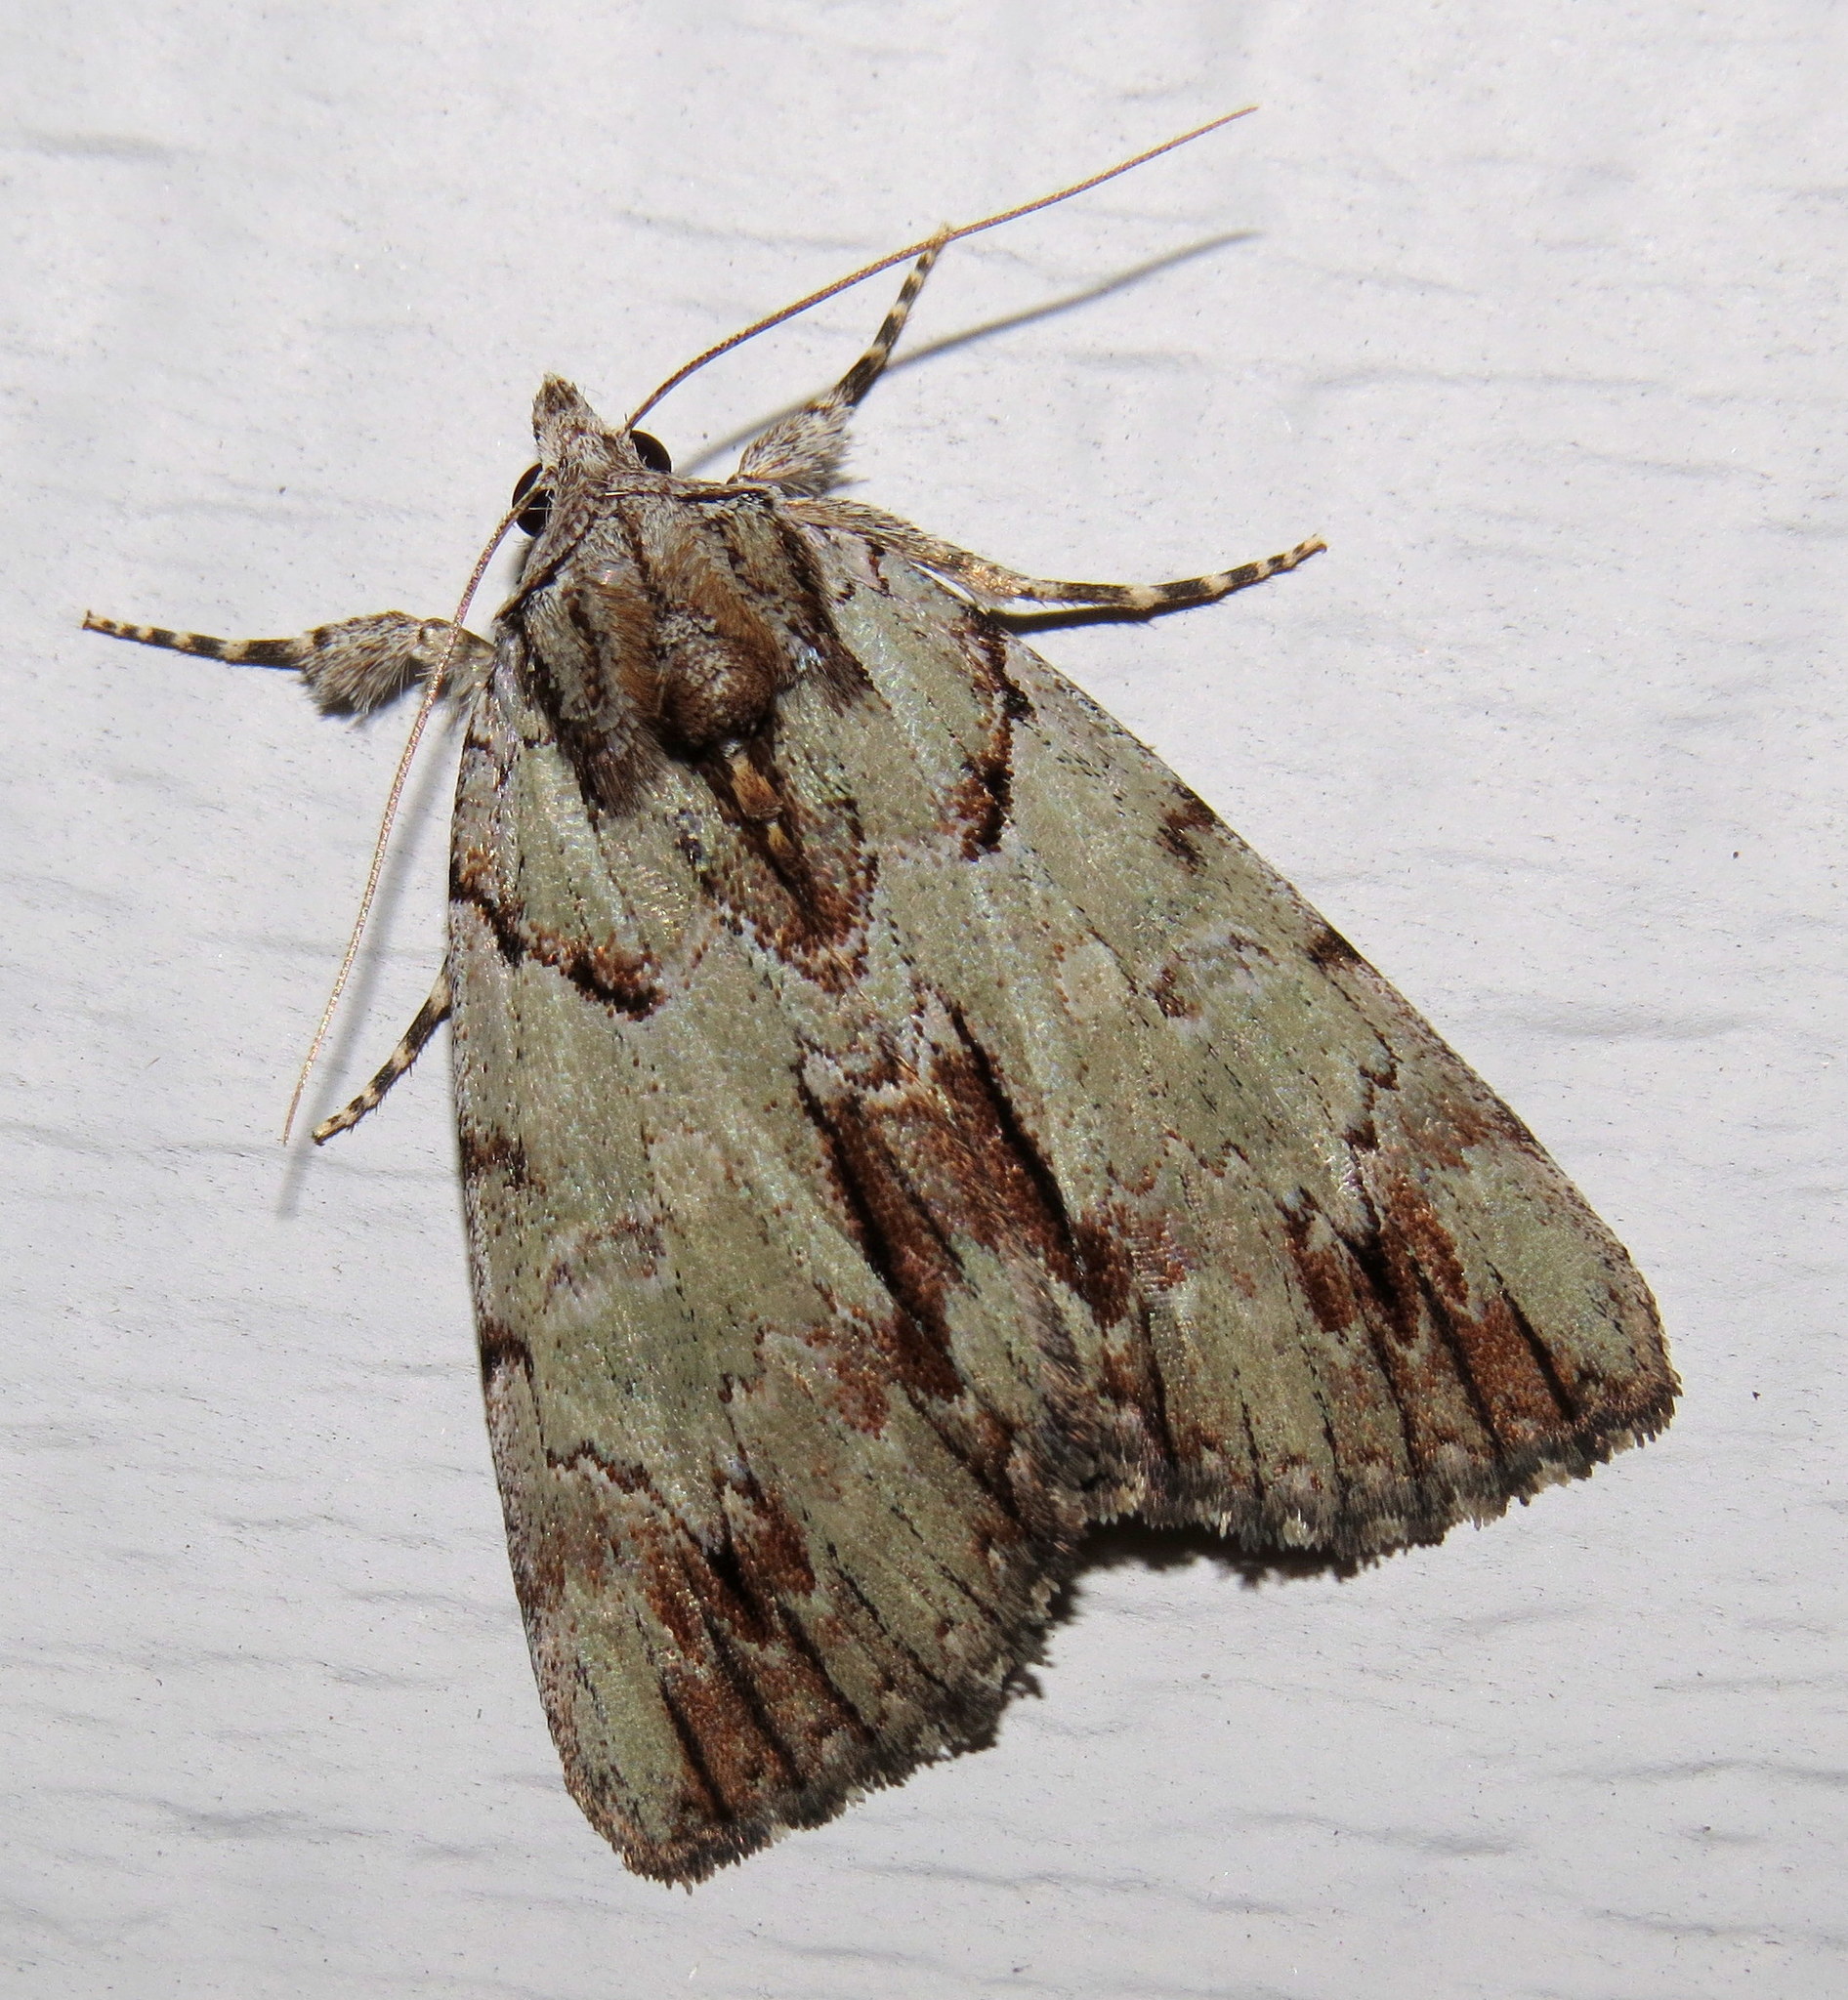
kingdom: Animalia
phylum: Arthropoda
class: Insecta
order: Lepidoptera
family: Erebidae
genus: Catocala
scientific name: Catocala praeclara
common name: Praeclara underwing
